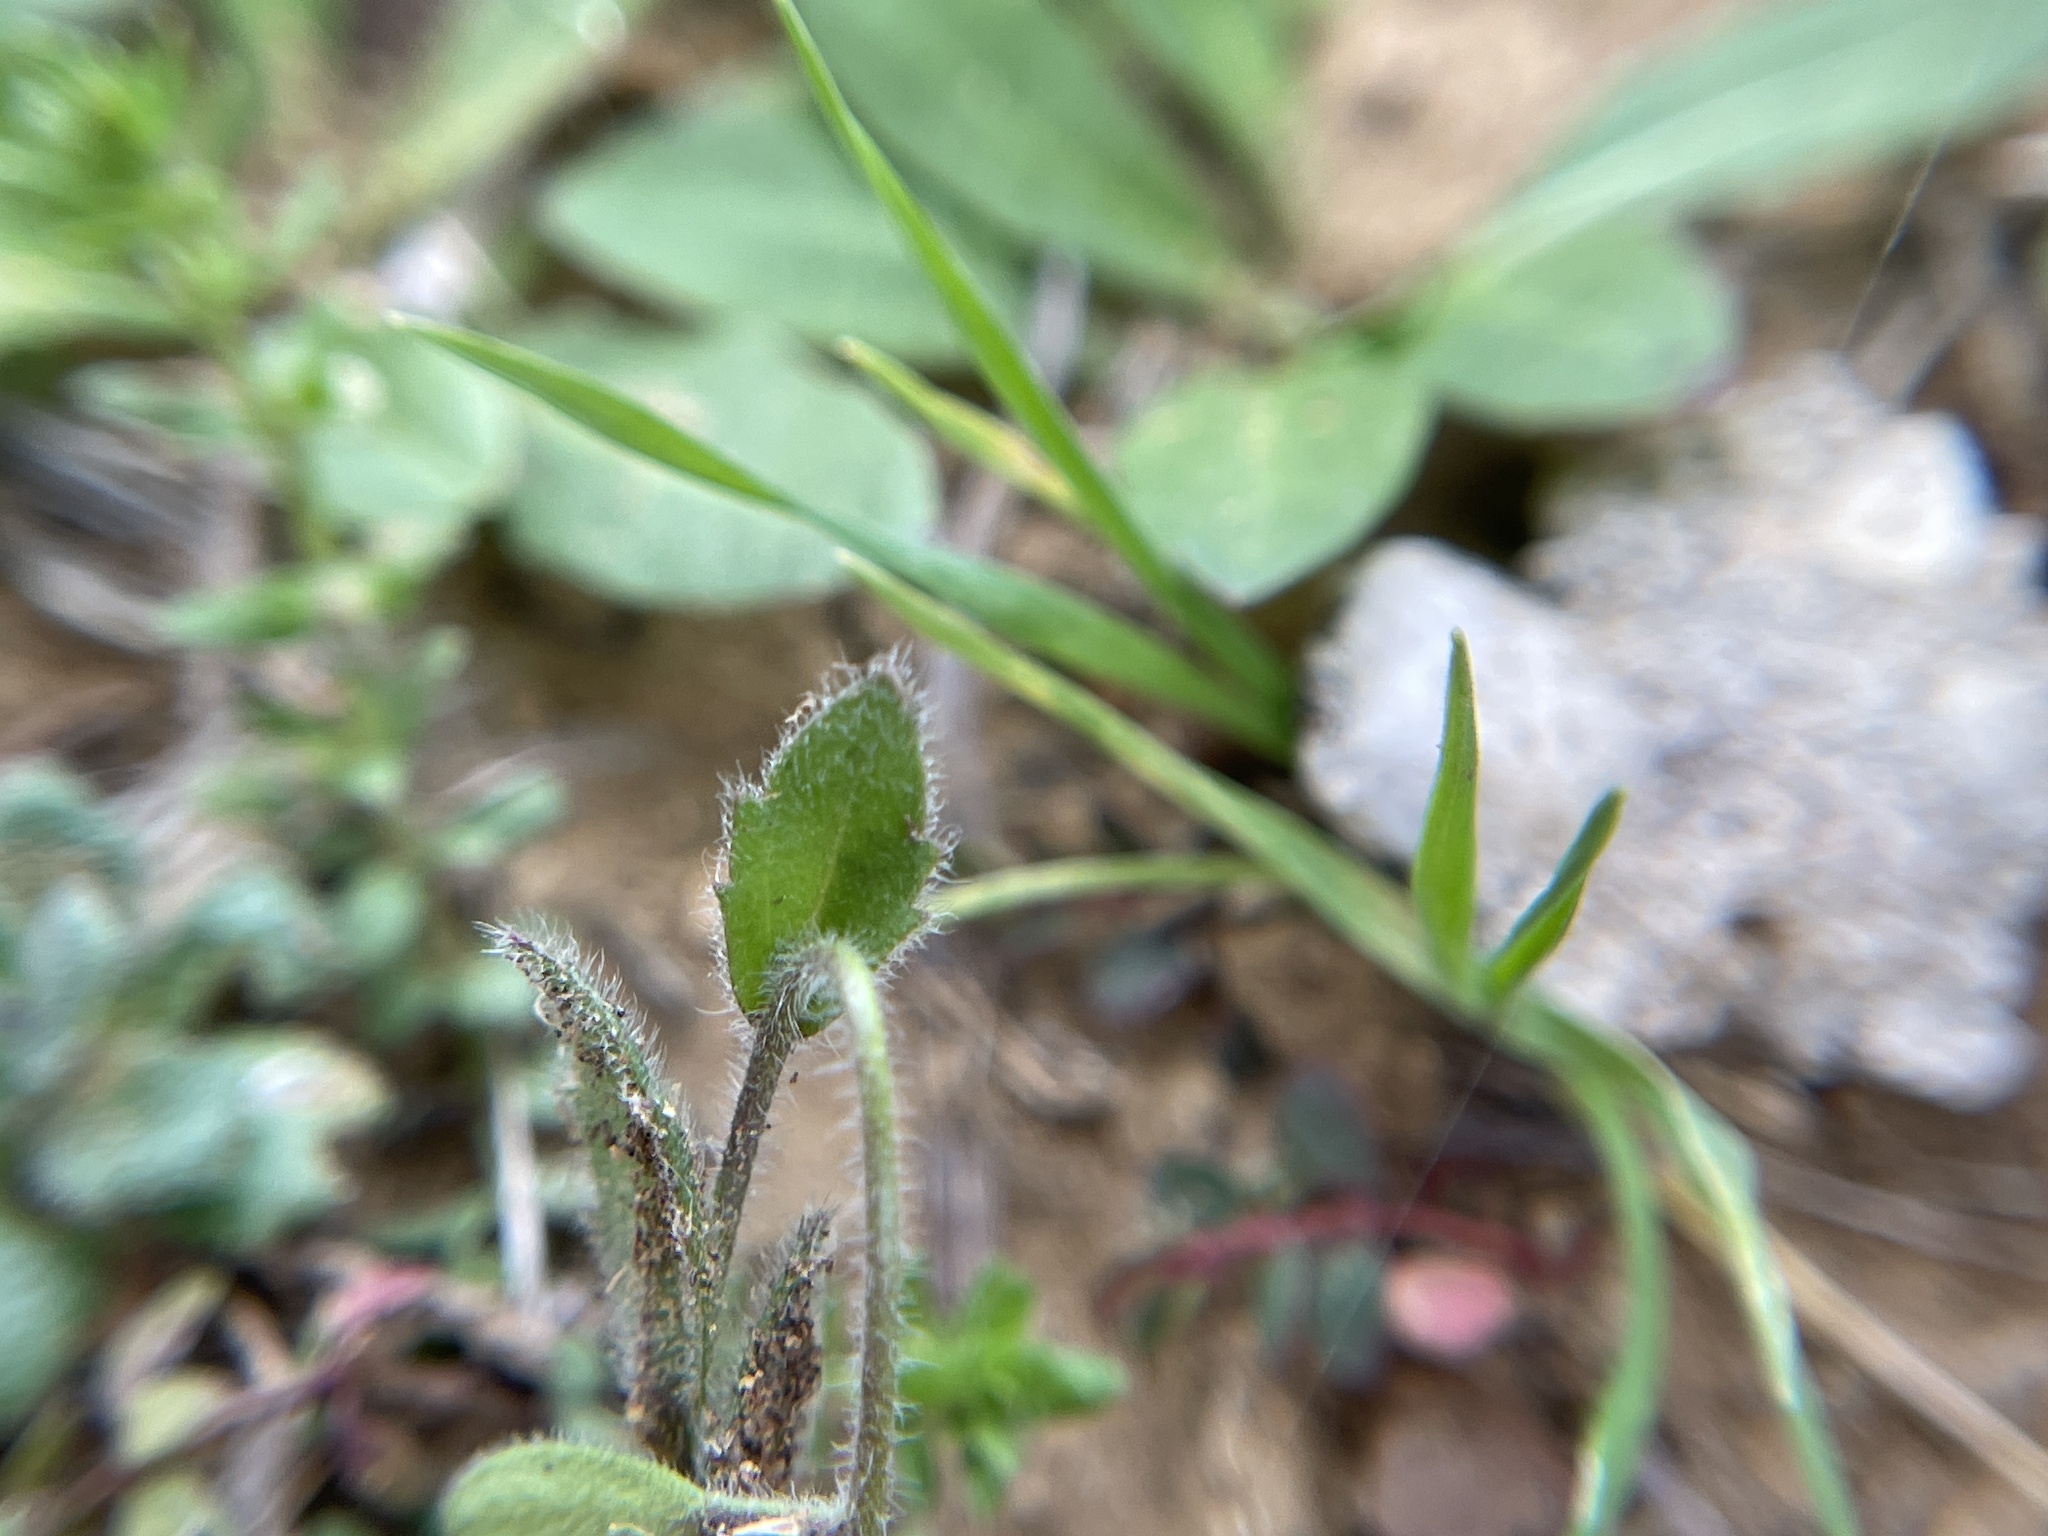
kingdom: Plantae
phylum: Tracheophyta
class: Magnoliopsida
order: Brassicales
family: Brassicaceae
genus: Tomostima
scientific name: Tomostima platycarpa
